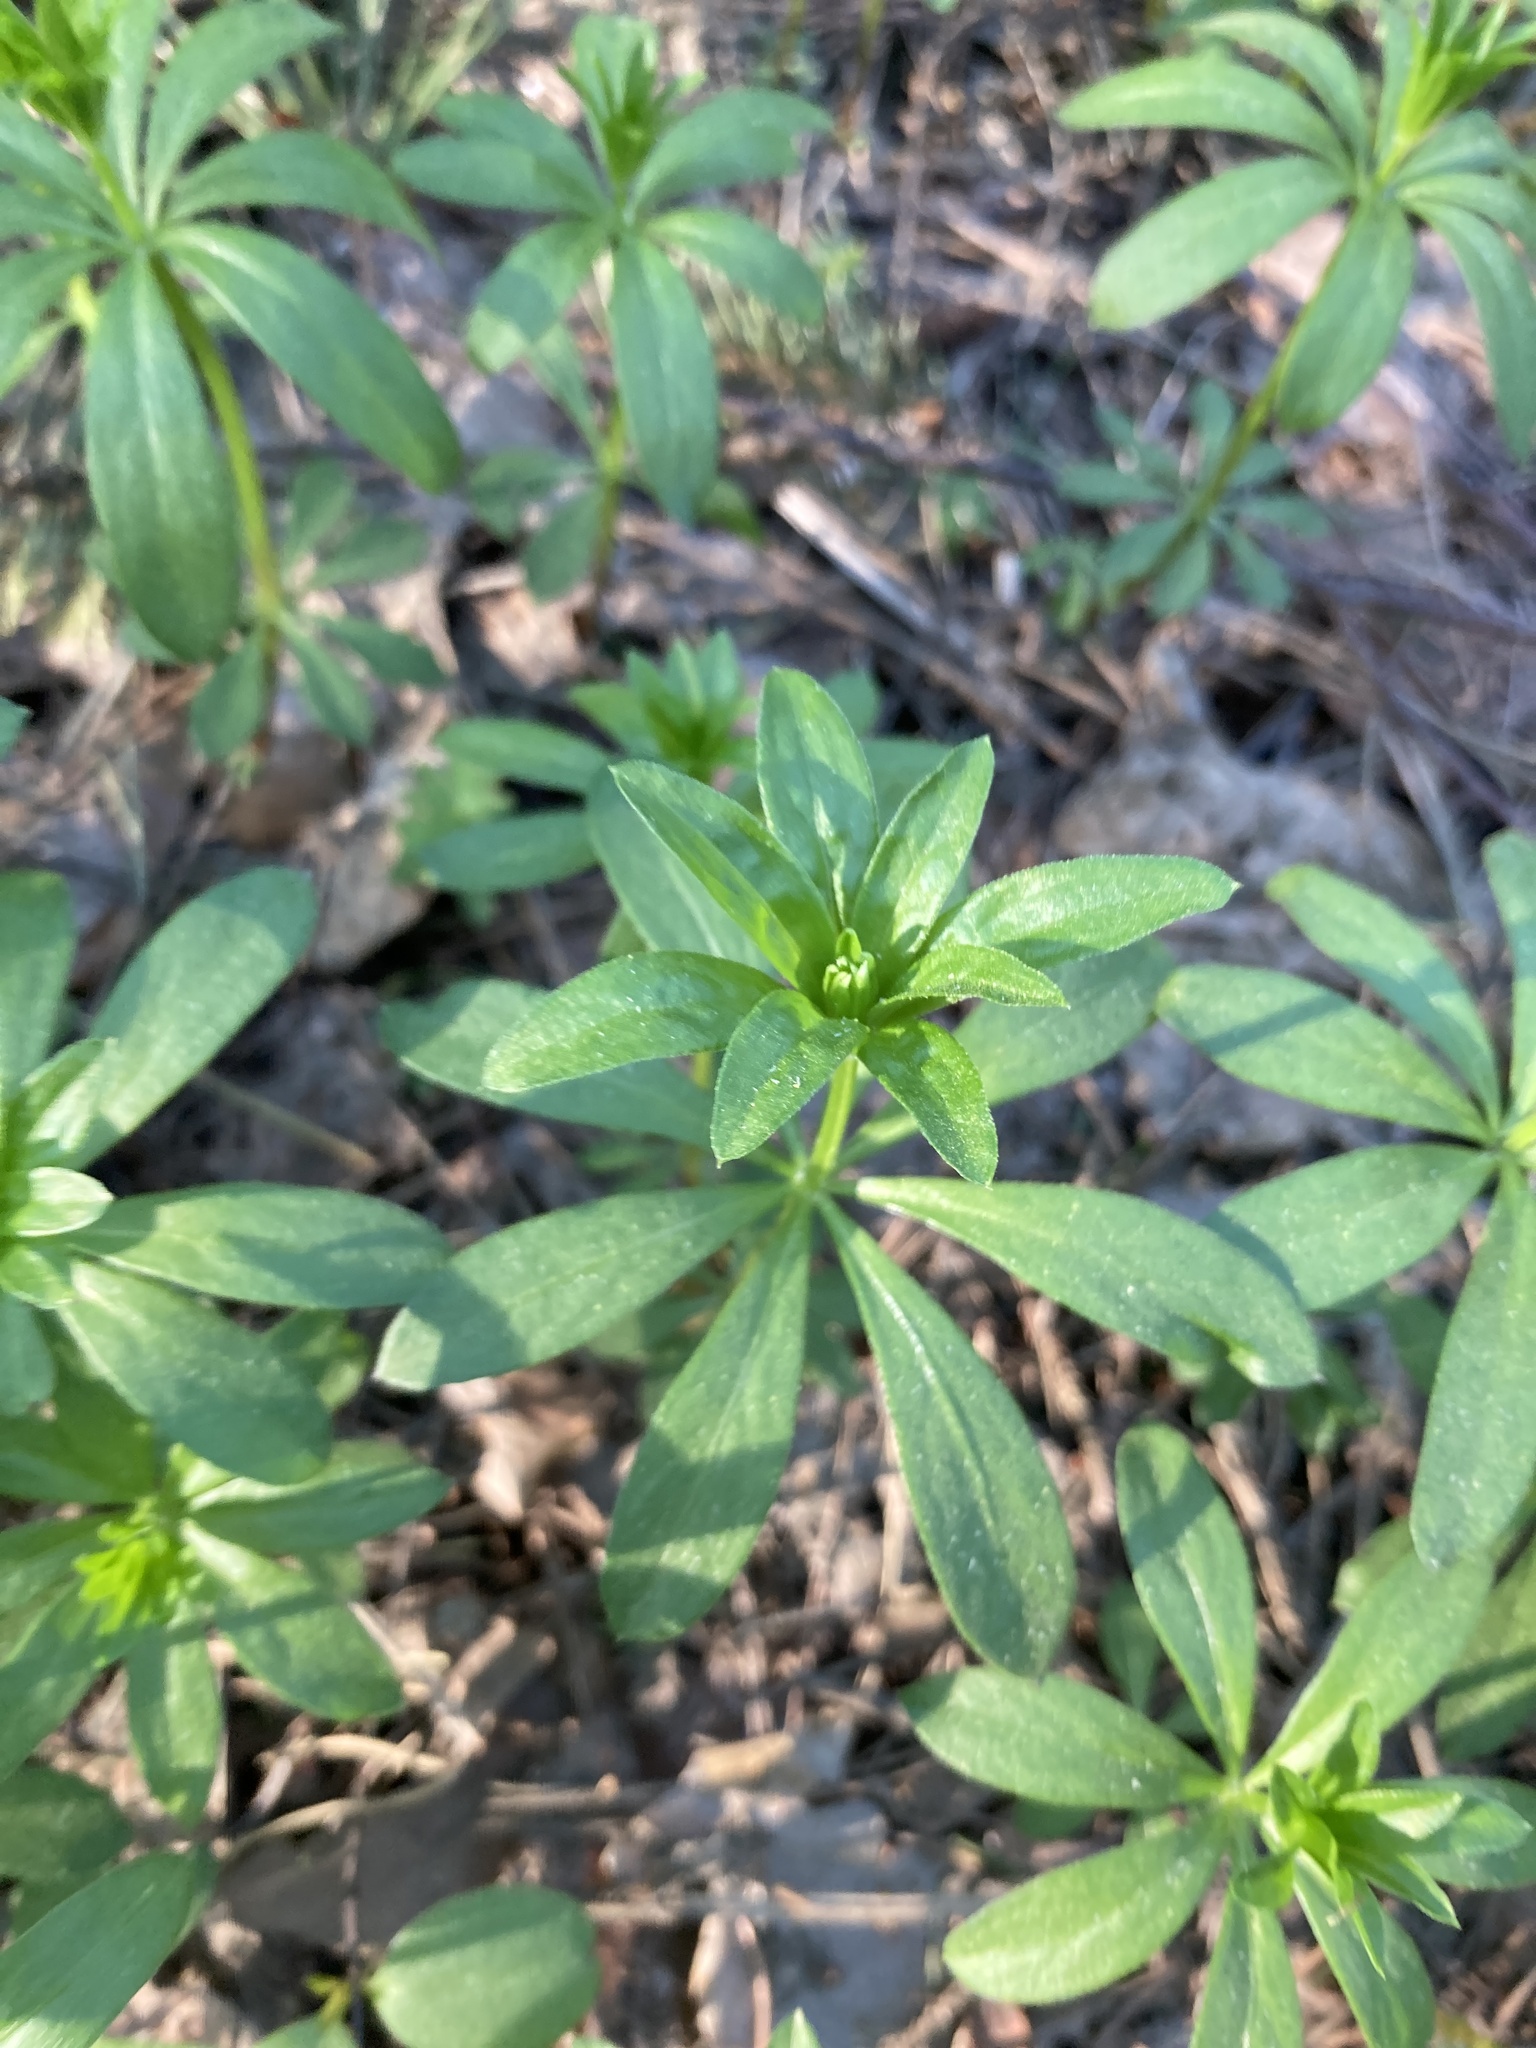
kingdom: Plantae
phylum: Tracheophyta
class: Magnoliopsida
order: Gentianales
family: Rubiaceae
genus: Galium
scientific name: Galium odoratum
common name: Sweet woodruff
